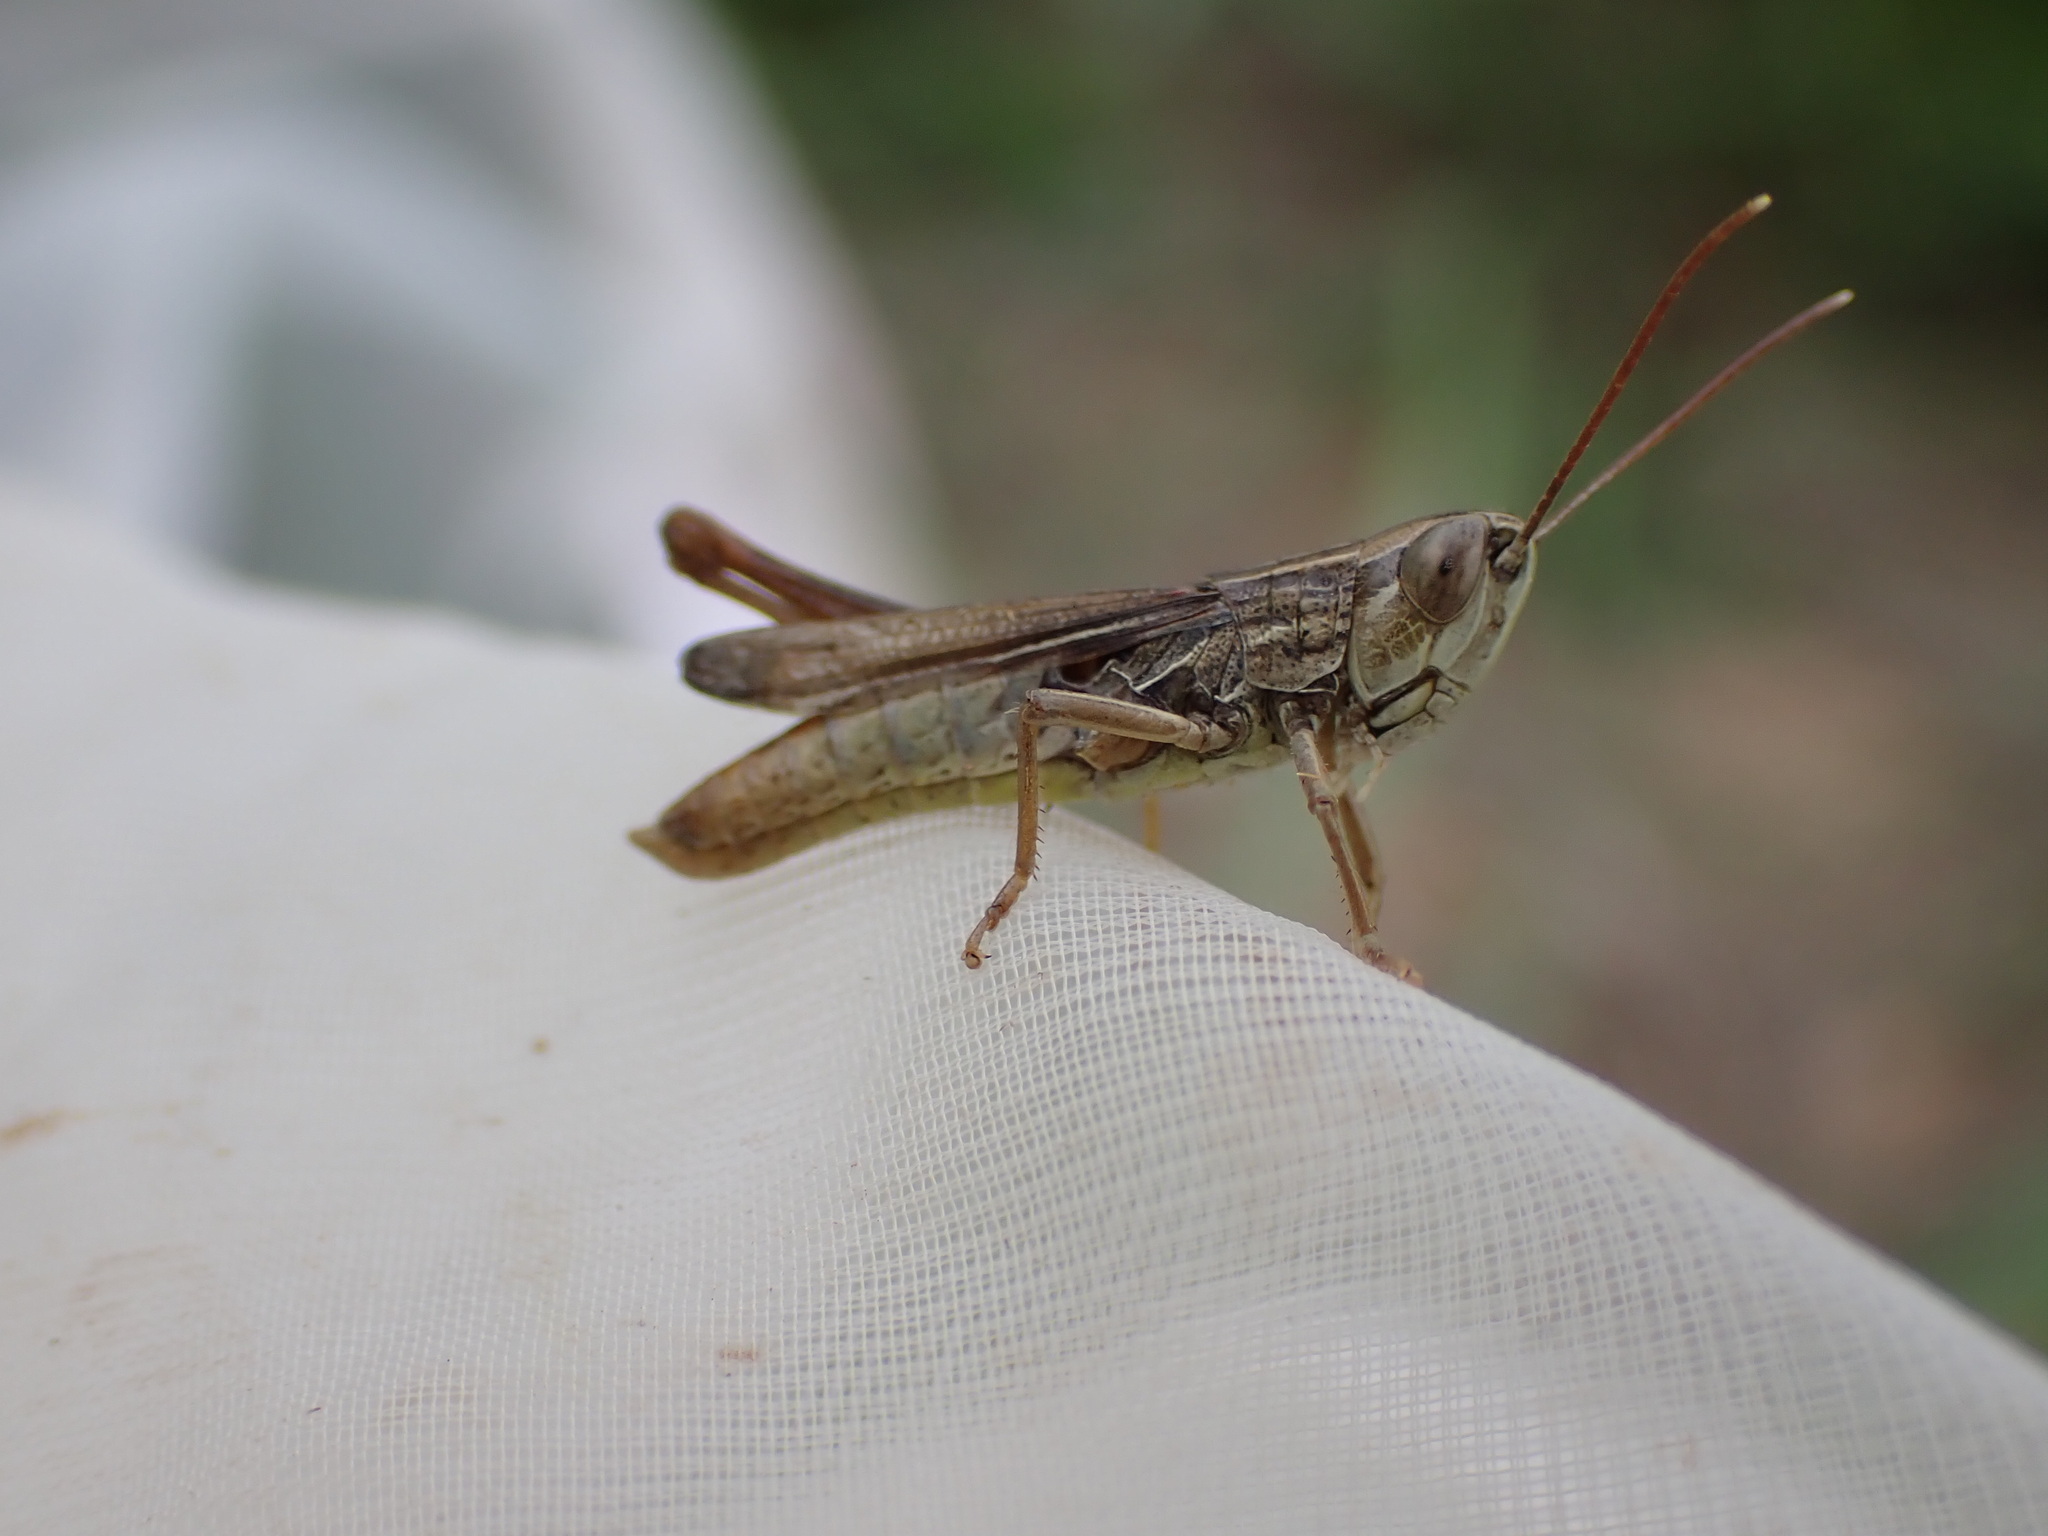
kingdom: Animalia
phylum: Arthropoda
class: Insecta
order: Orthoptera
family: Acrididae
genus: Euchorthippus
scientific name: Euchorthippus elegantulus
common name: Elegant straw grasshopper
